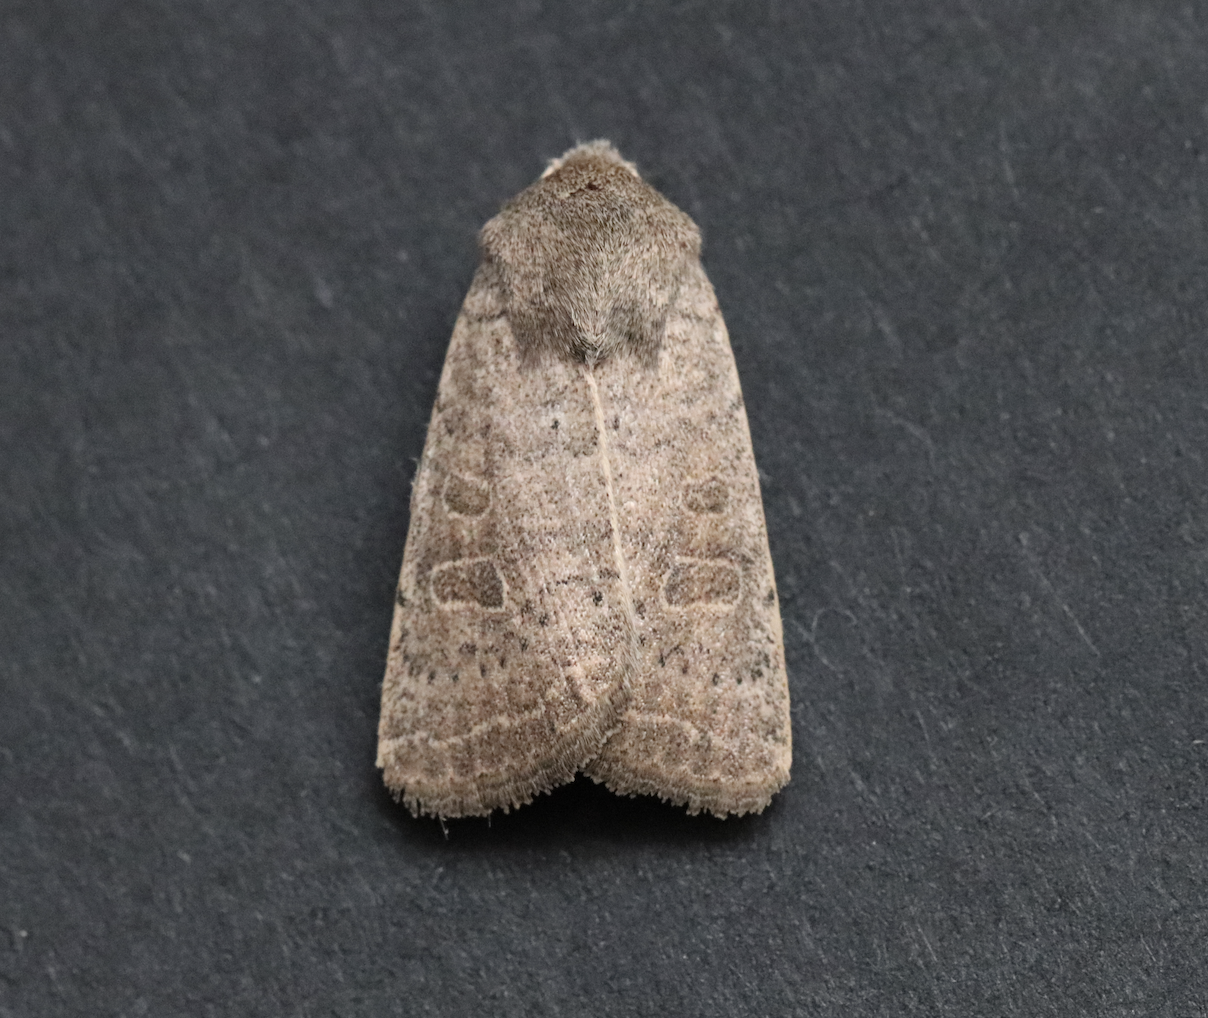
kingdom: Animalia
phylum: Arthropoda
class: Insecta
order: Lepidoptera
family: Noctuidae
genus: Hoplodrina
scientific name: Hoplodrina ambigua
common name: Vine's rustic
